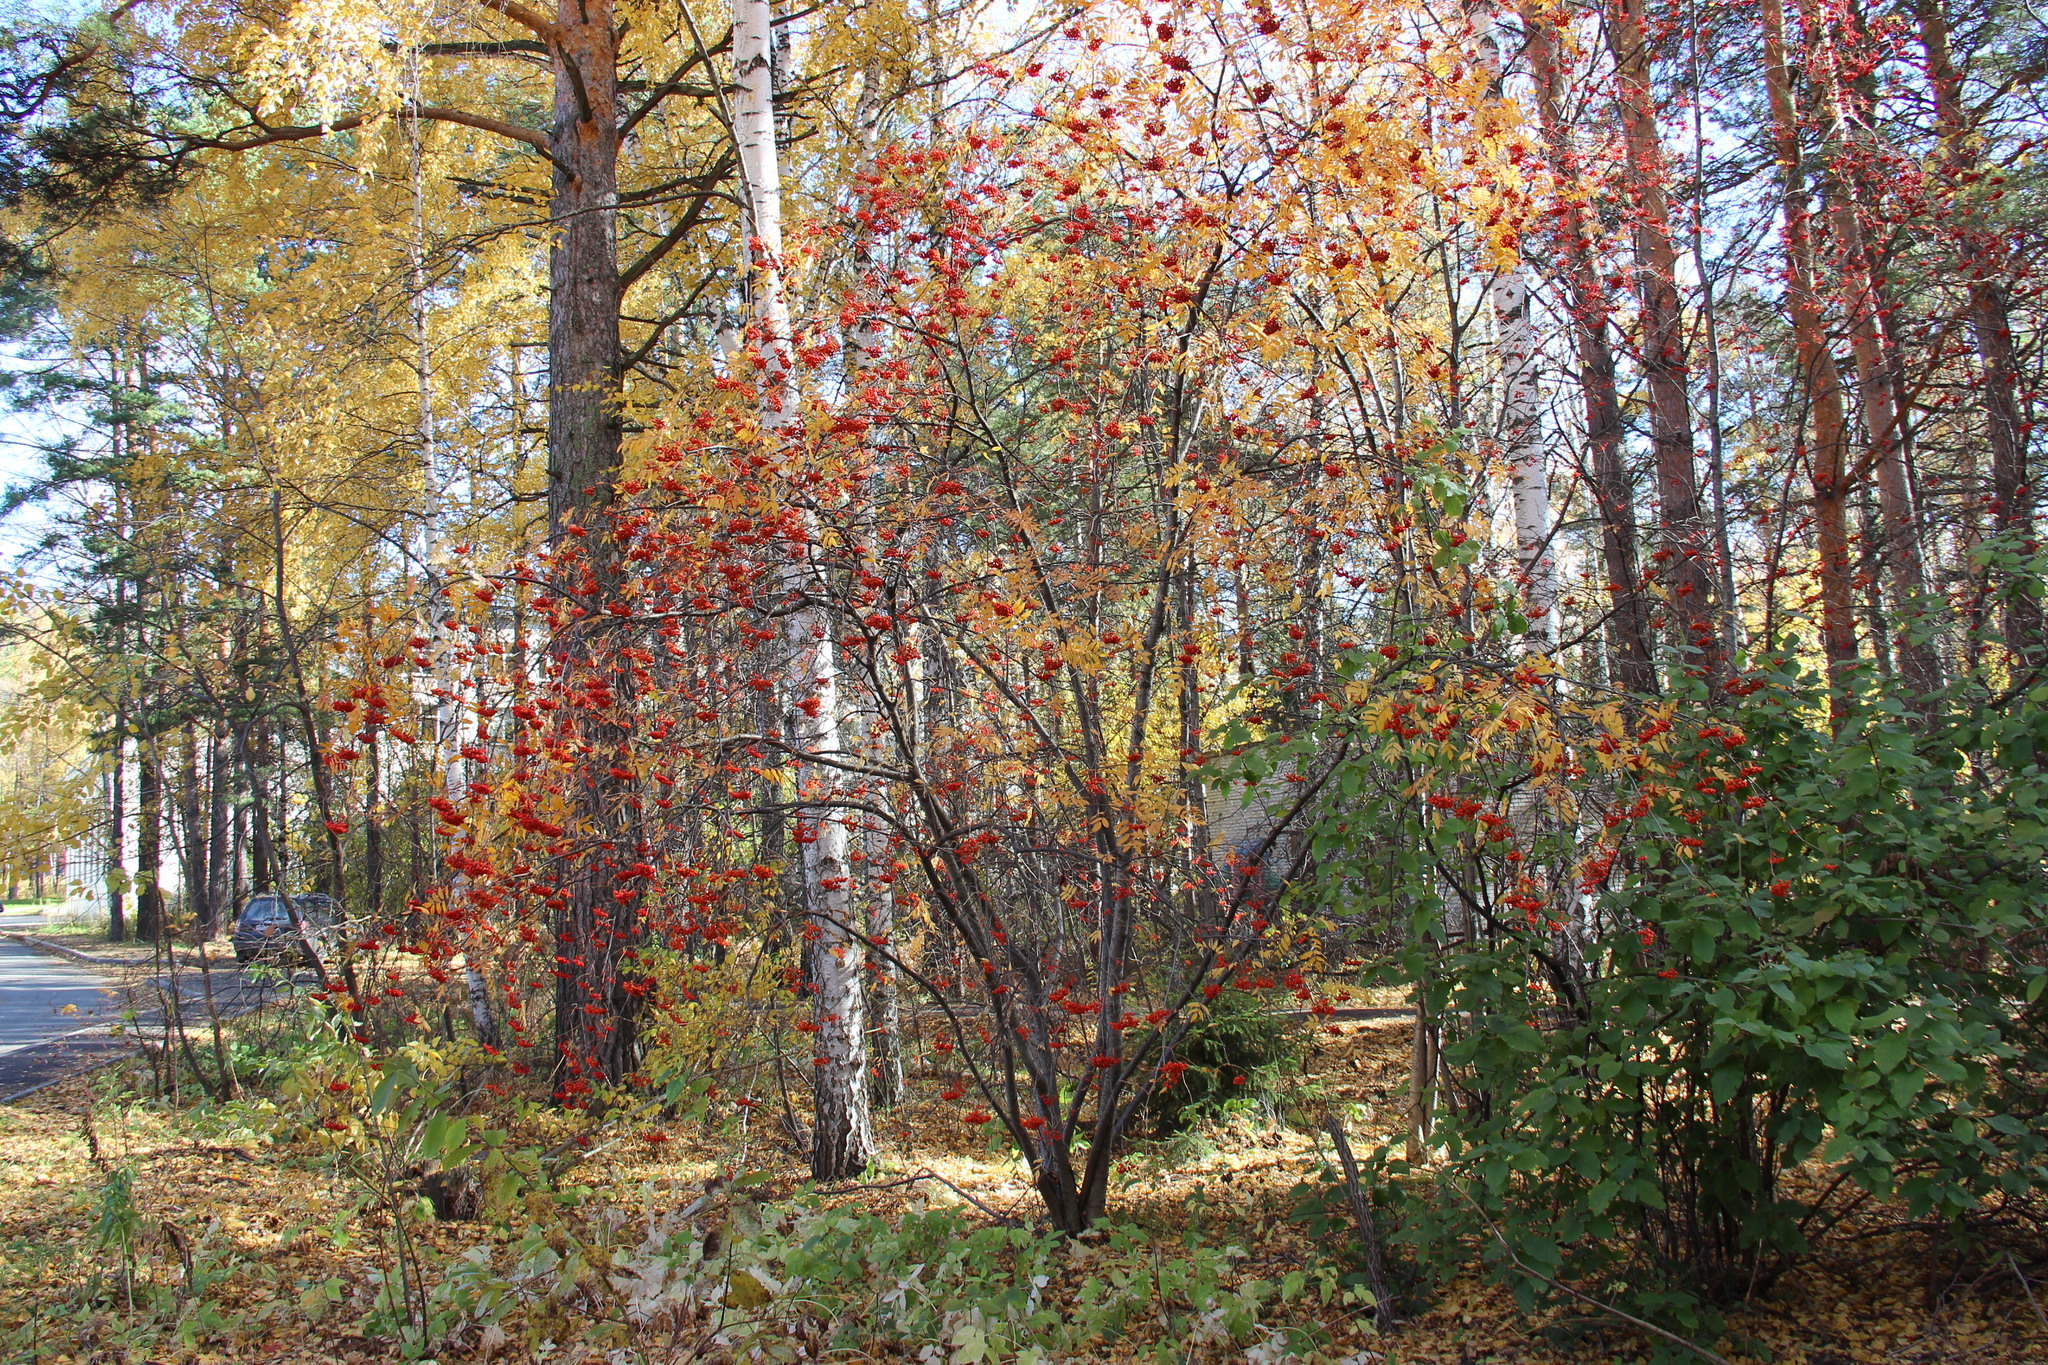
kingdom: Plantae
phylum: Tracheophyta
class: Magnoliopsida
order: Rosales
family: Rosaceae
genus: Sorbus
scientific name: Sorbus aucuparia
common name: Rowan
